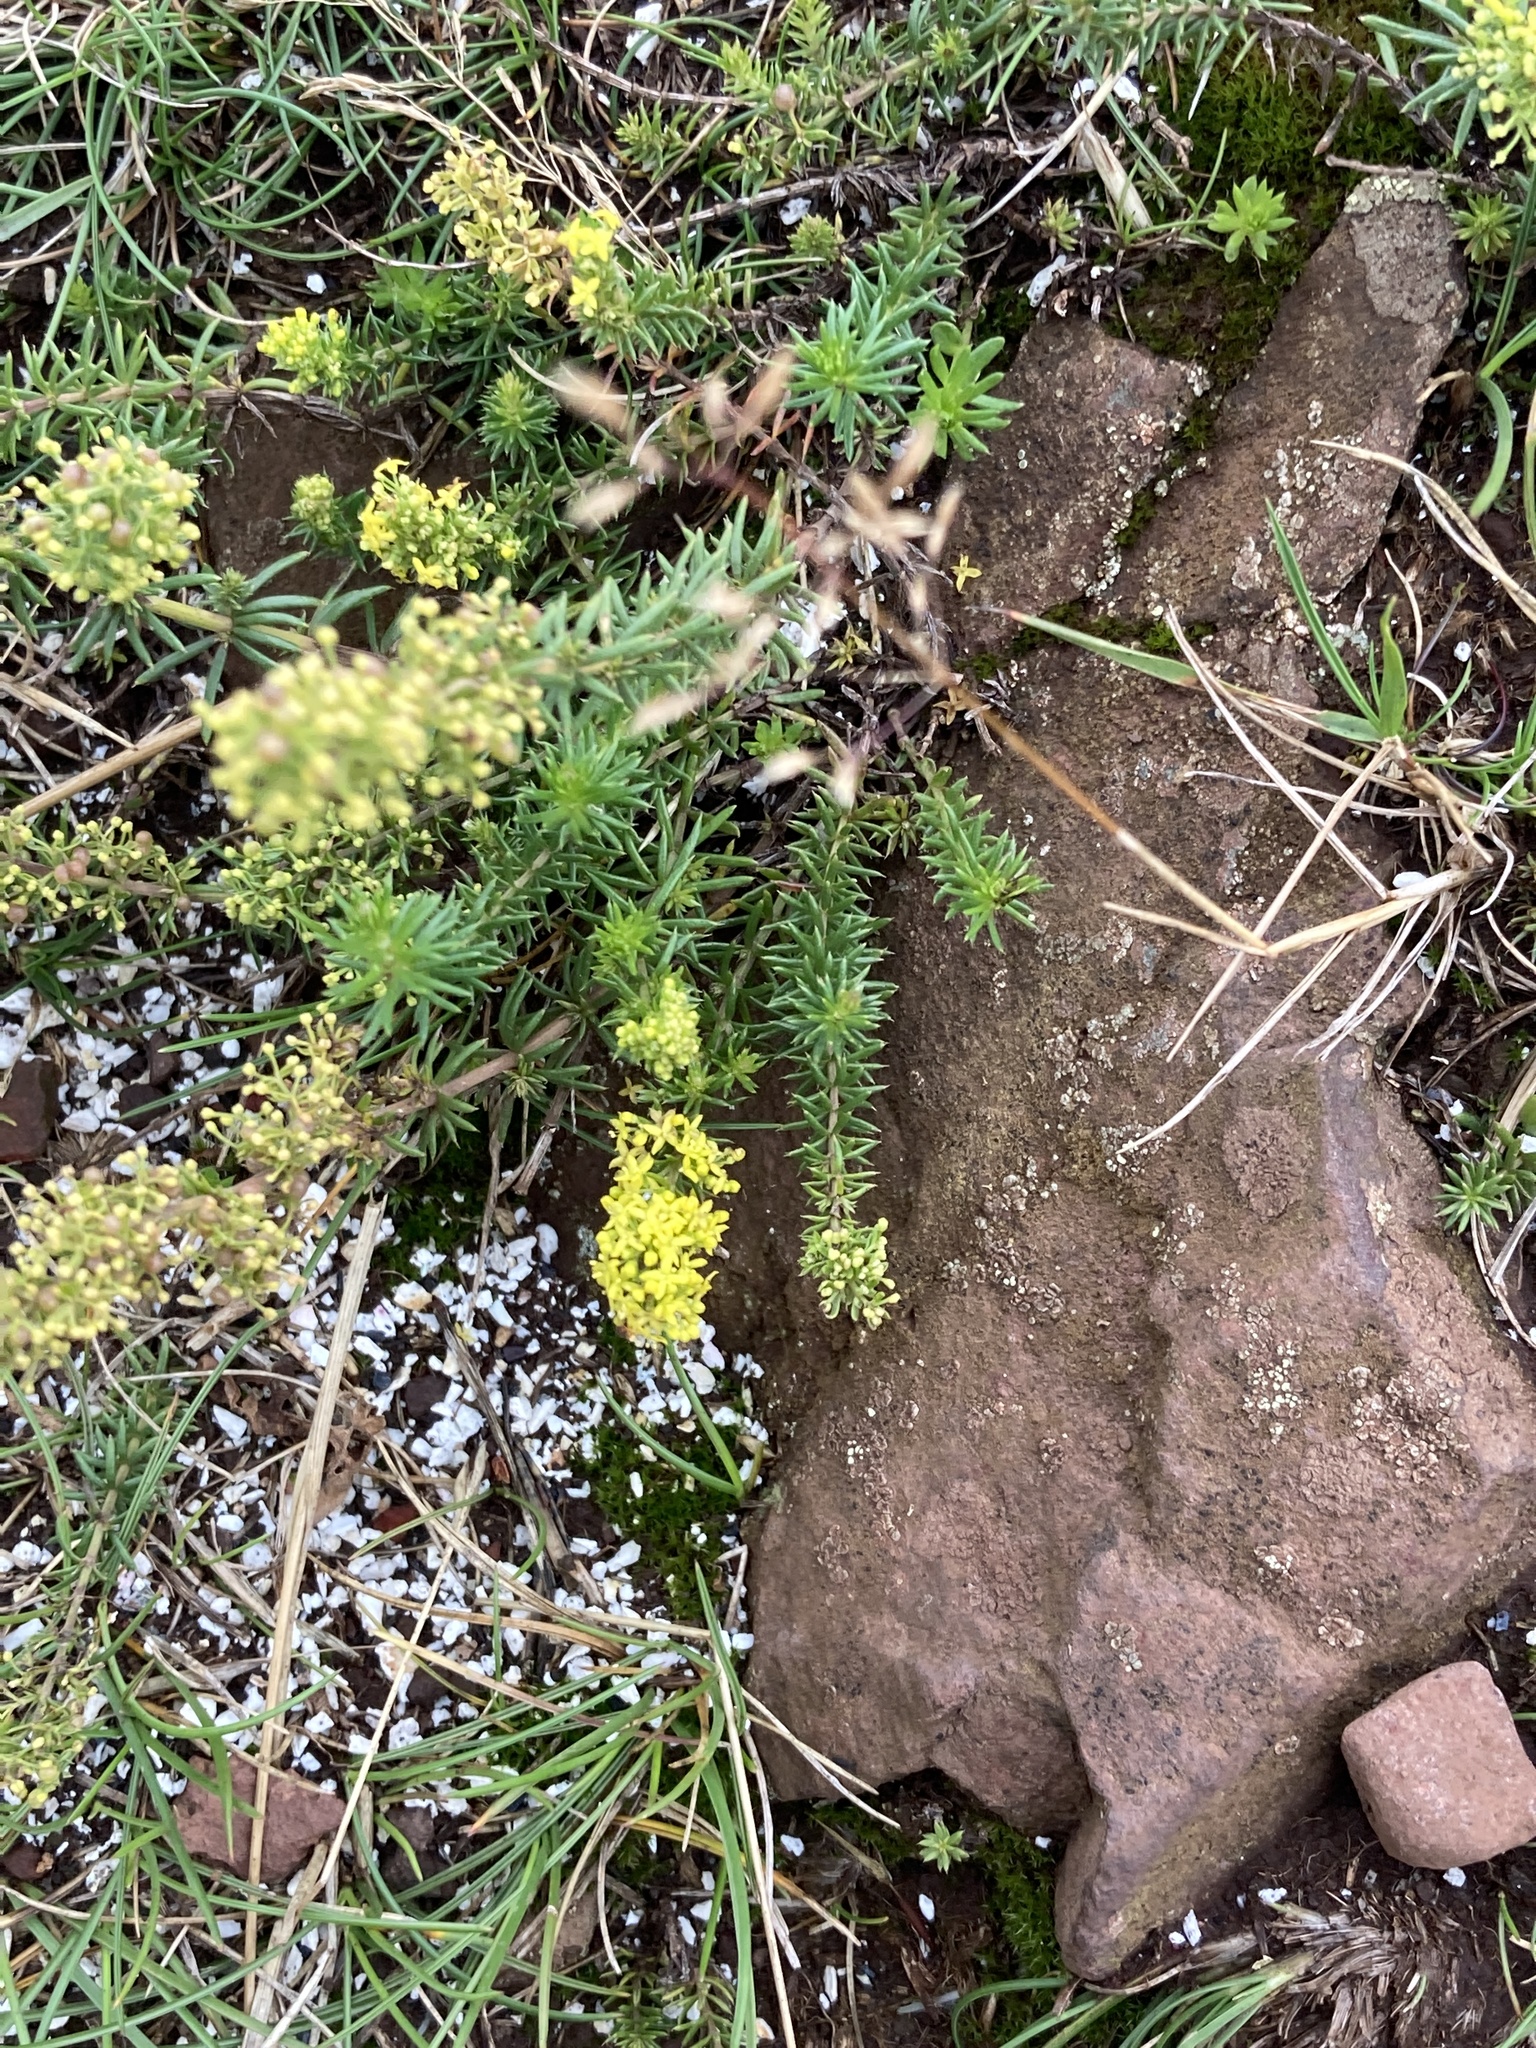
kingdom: Plantae
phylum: Tracheophyta
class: Magnoliopsida
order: Gentianales
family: Rubiaceae
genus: Galium
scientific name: Galium verum
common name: Lady's bedstraw
